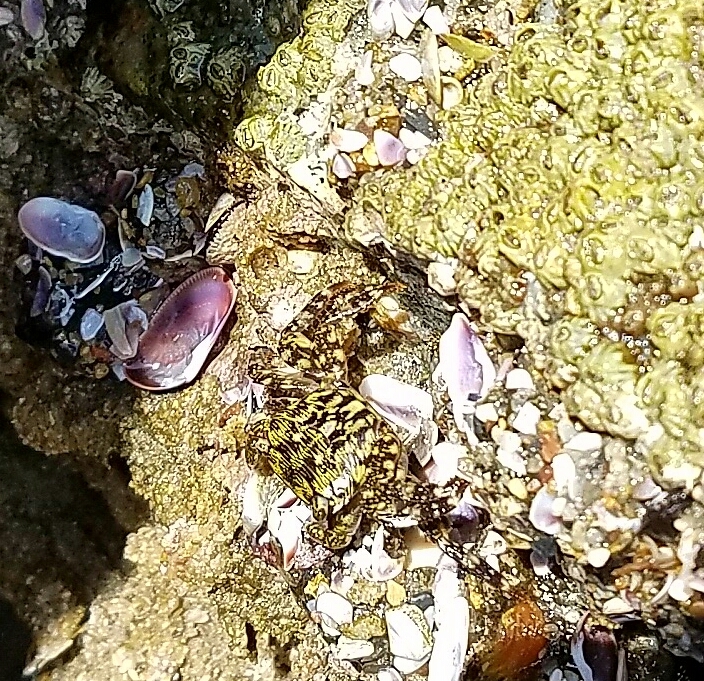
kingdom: Animalia
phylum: Arthropoda
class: Malacostraca
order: Decapoda
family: Grapsidae
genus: Pachygrapsus
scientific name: Pachygrapsus crassipes
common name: Striped shore crab
